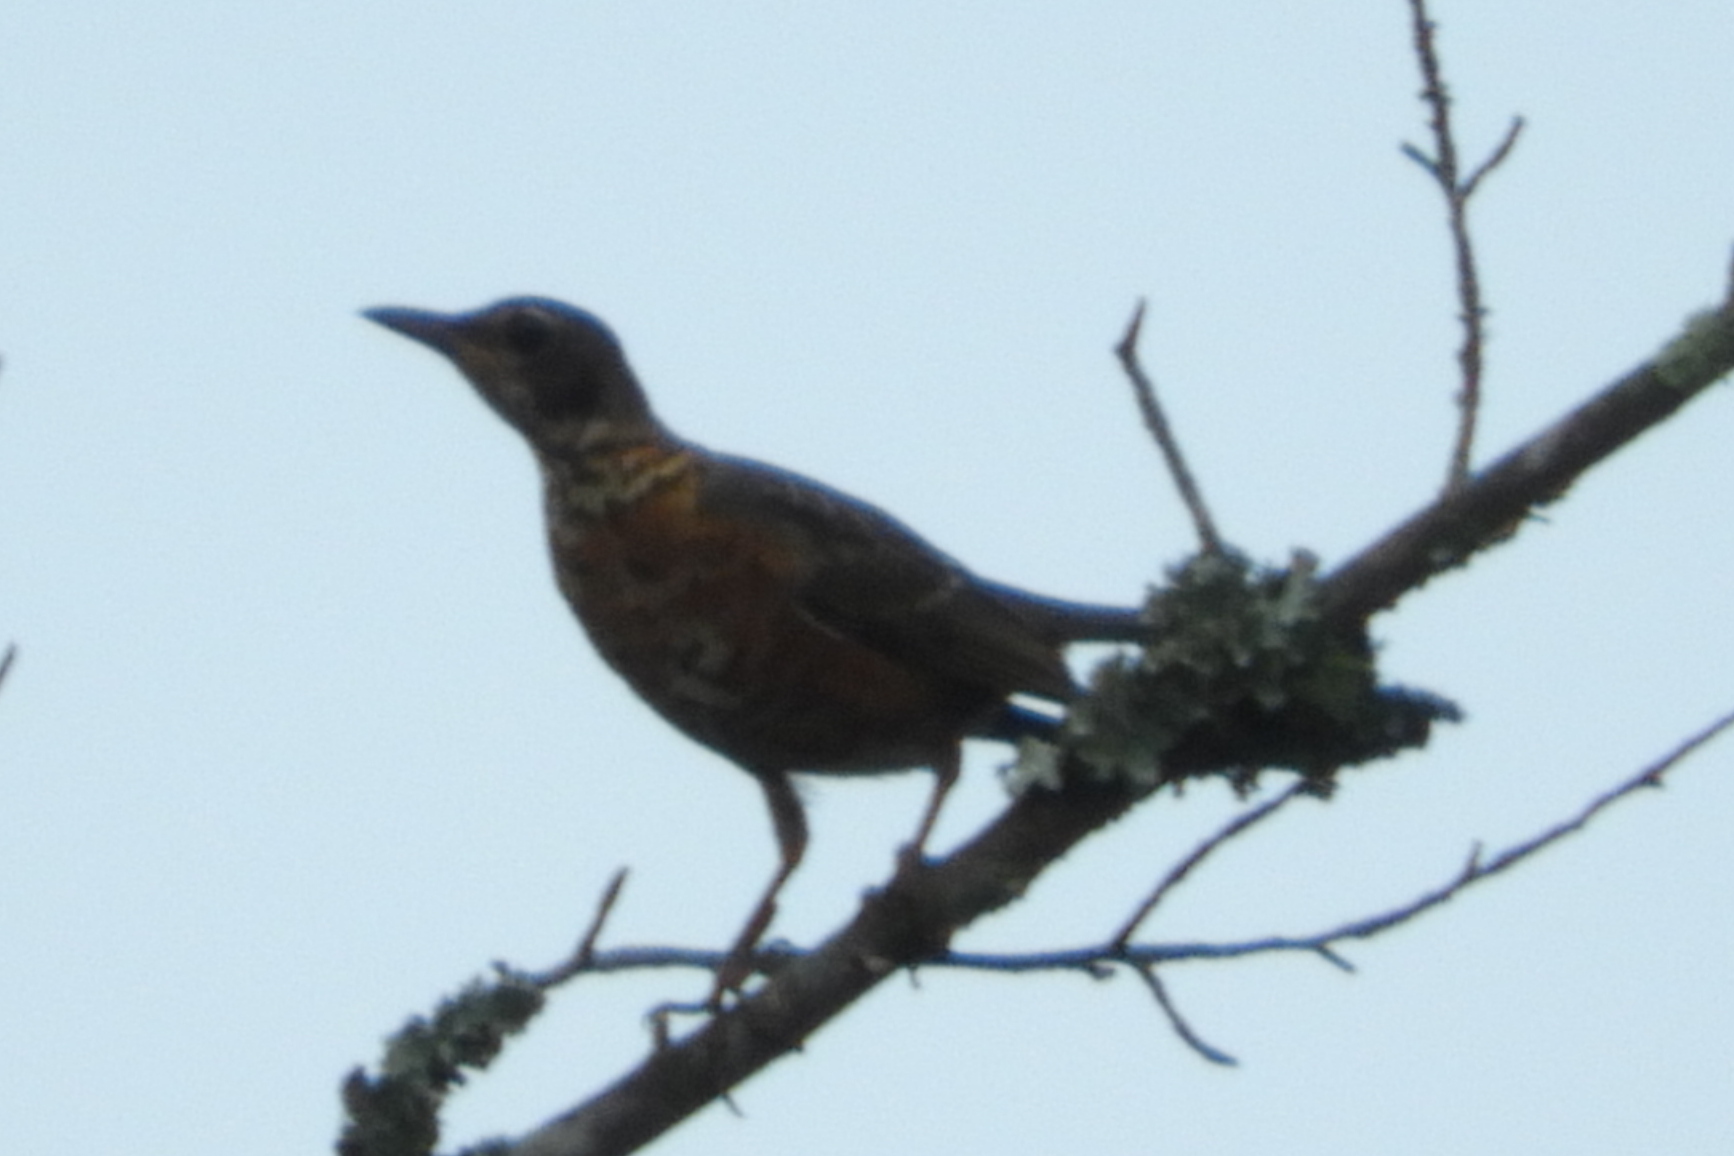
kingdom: Animalia
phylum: Chordata
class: Aves
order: Passeriformes
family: Turdidae
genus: Turdus
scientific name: Turdus migratorius
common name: American robin
